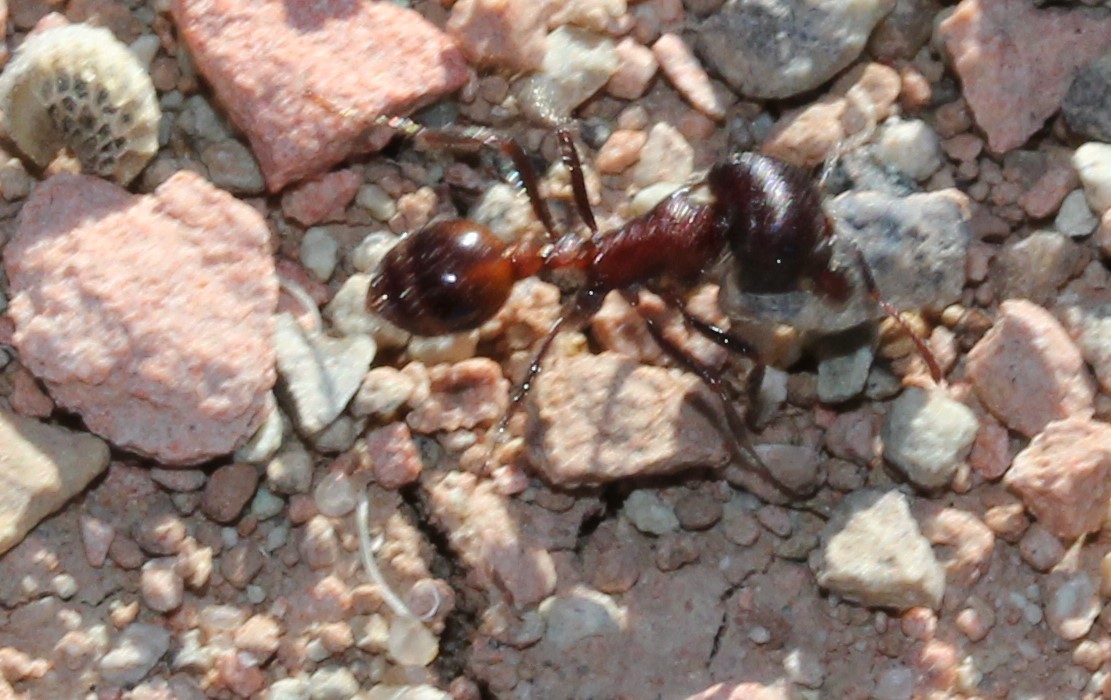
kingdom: Animalia
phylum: Arthropoda
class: Insecta
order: Hymenoptera
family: Formicidae
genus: Pogonomyrmex
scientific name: Pogonomyrmex rugosus
